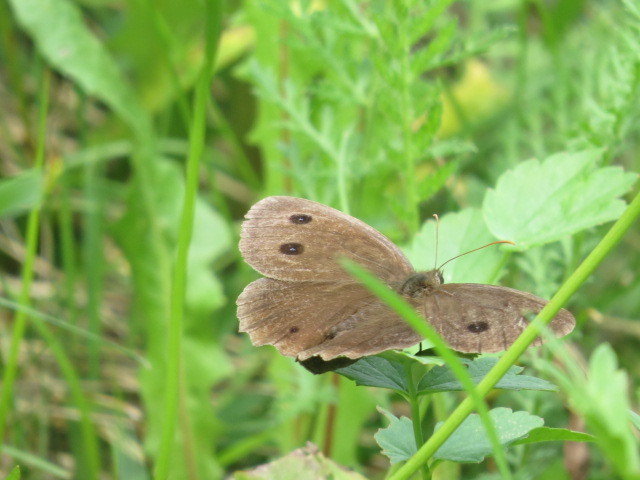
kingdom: Animalia
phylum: Arthropoda
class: Insecta
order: Lepidoptera
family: Nymphalidae
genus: Minois
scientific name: Minois dryas
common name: Dryad
